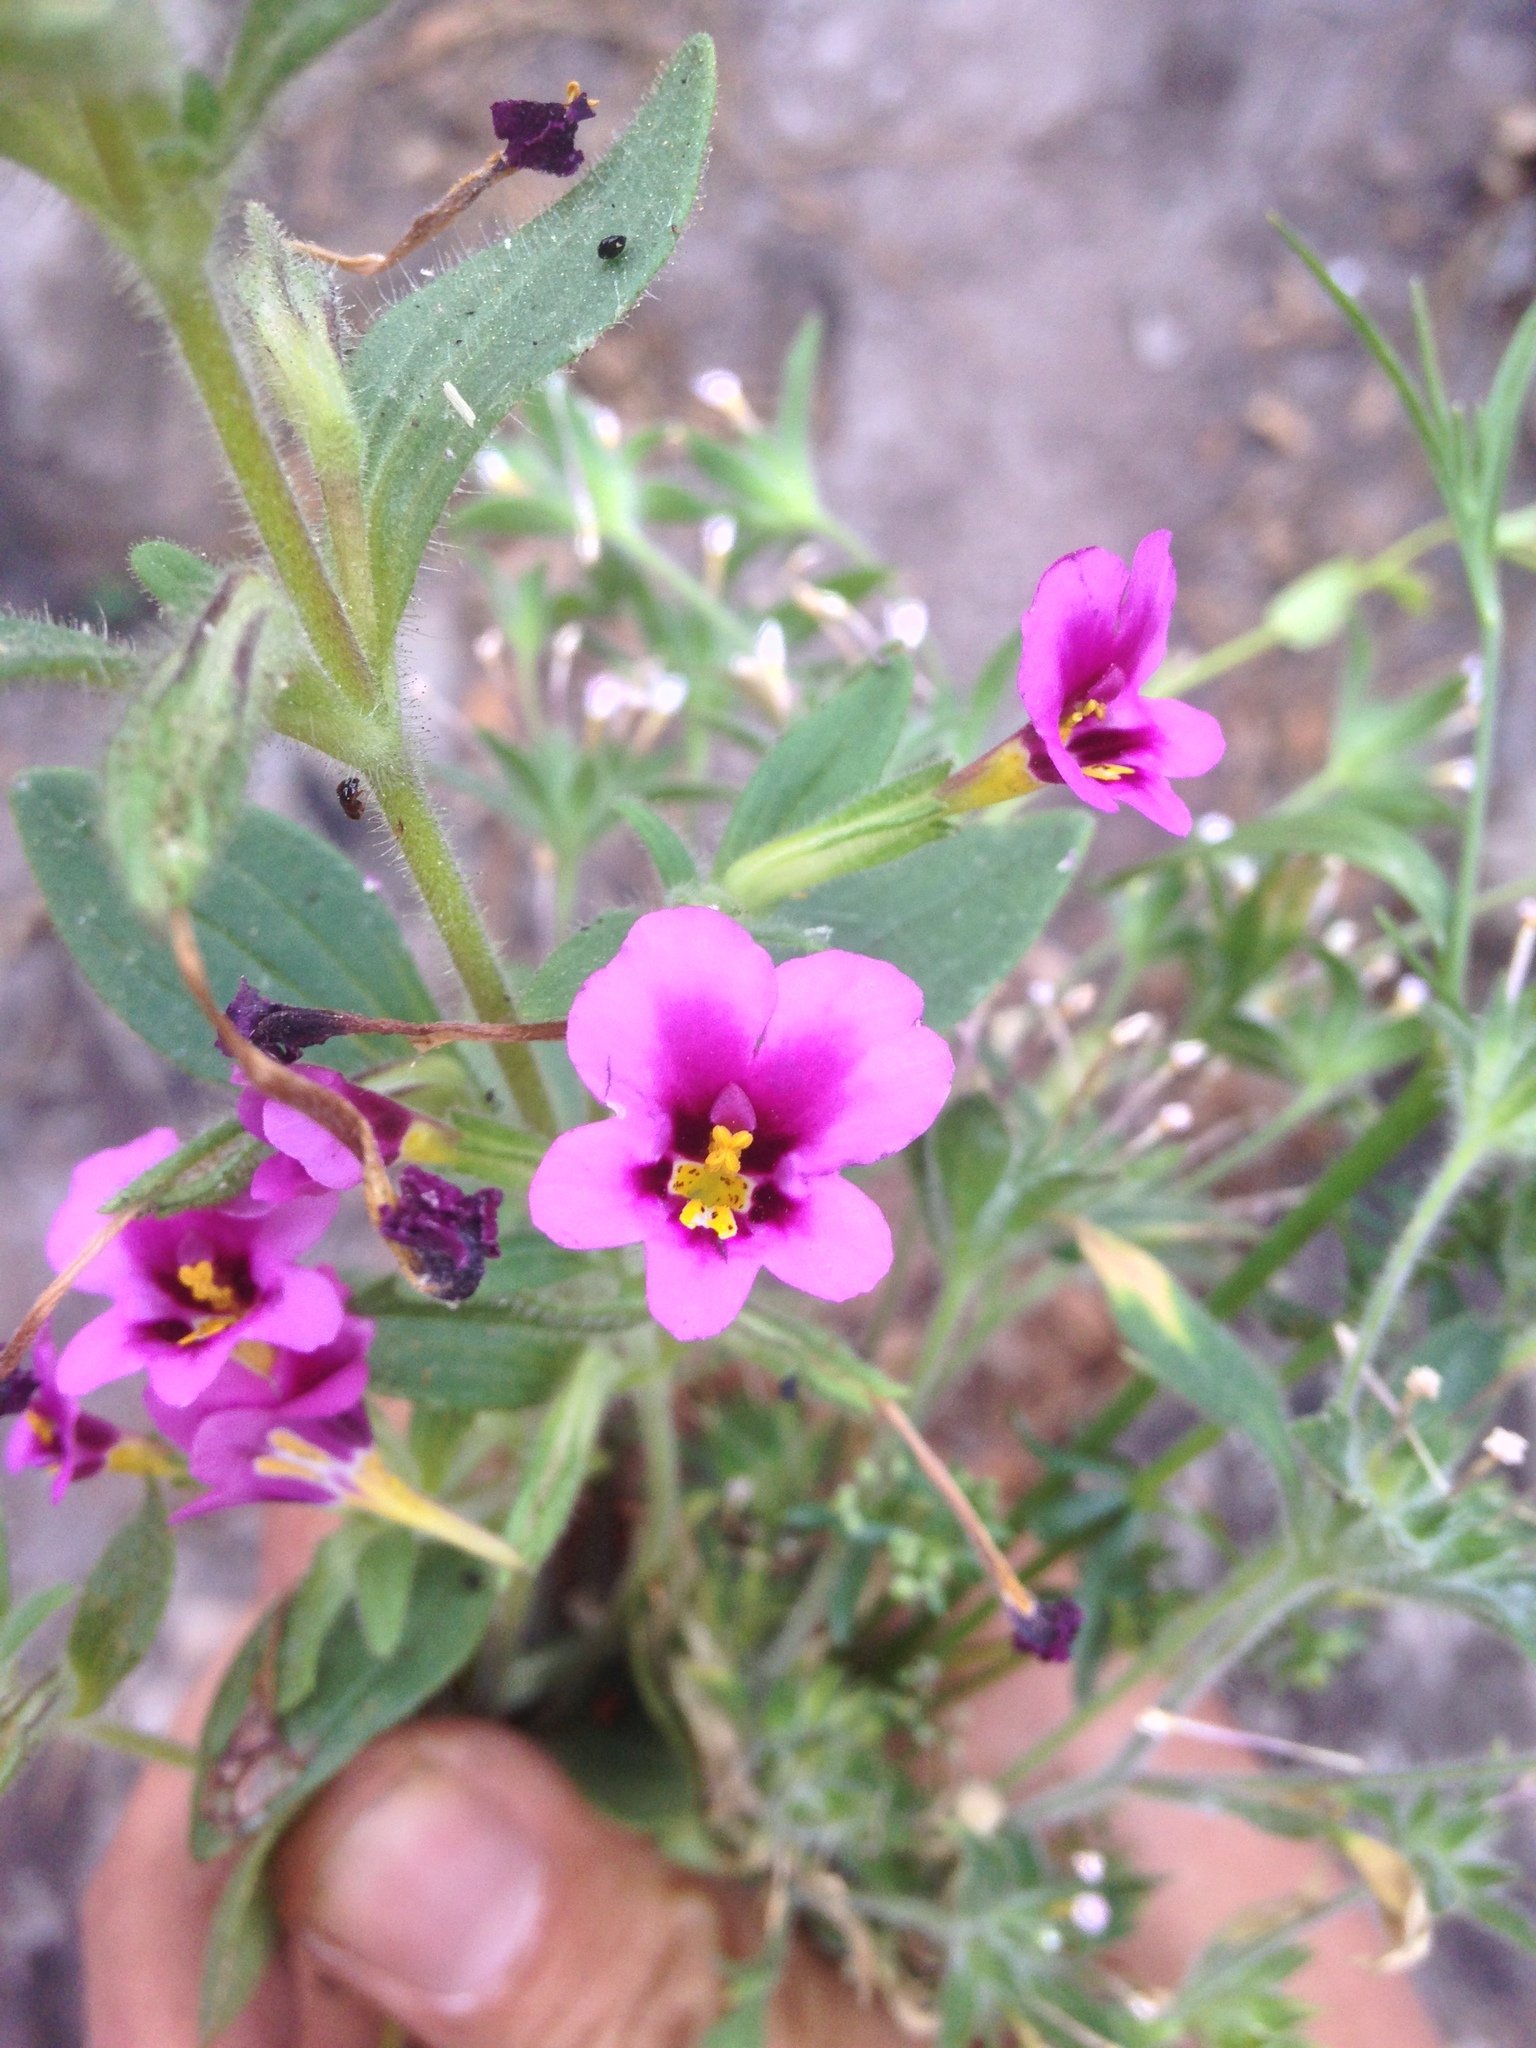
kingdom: Plantae
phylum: Tracheophyta
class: Magnoliopsida
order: Lamiales
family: Phrymaceae
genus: Diplacus
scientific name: Diplacus kelloggii
